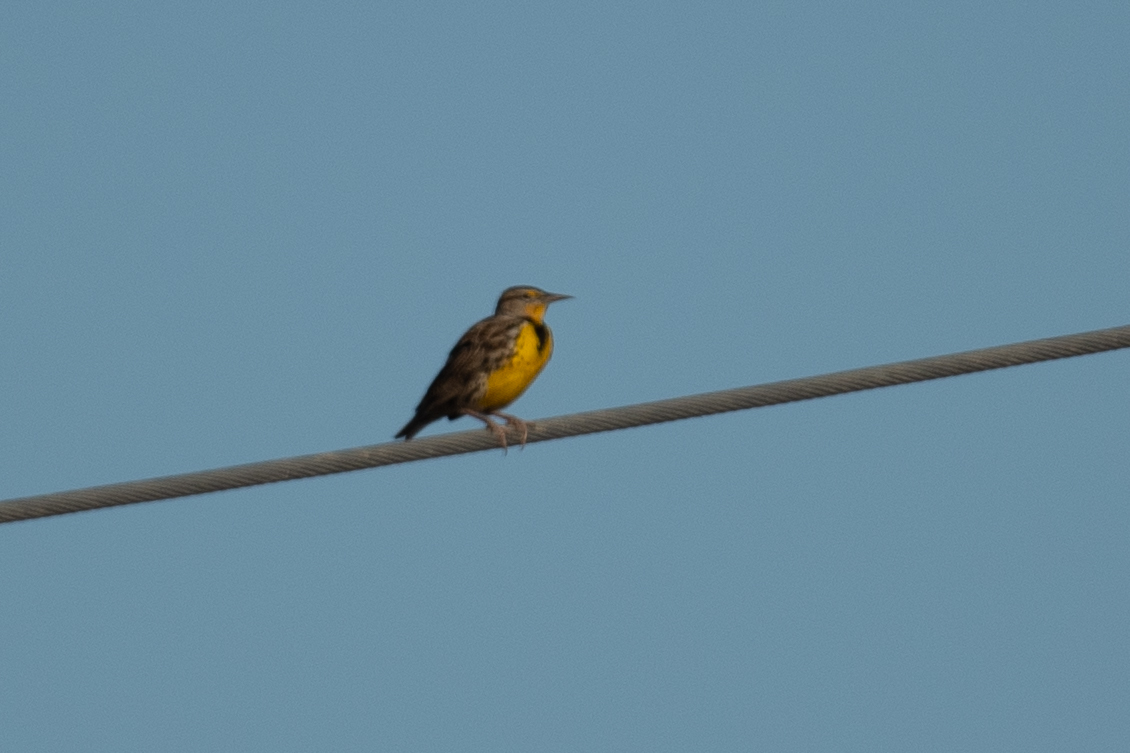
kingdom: Animalia
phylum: Chordata
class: Aves
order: Passeriformes
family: Icteridae
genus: Sturnella
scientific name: Sturnella neglecta
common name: Western meadowlark
